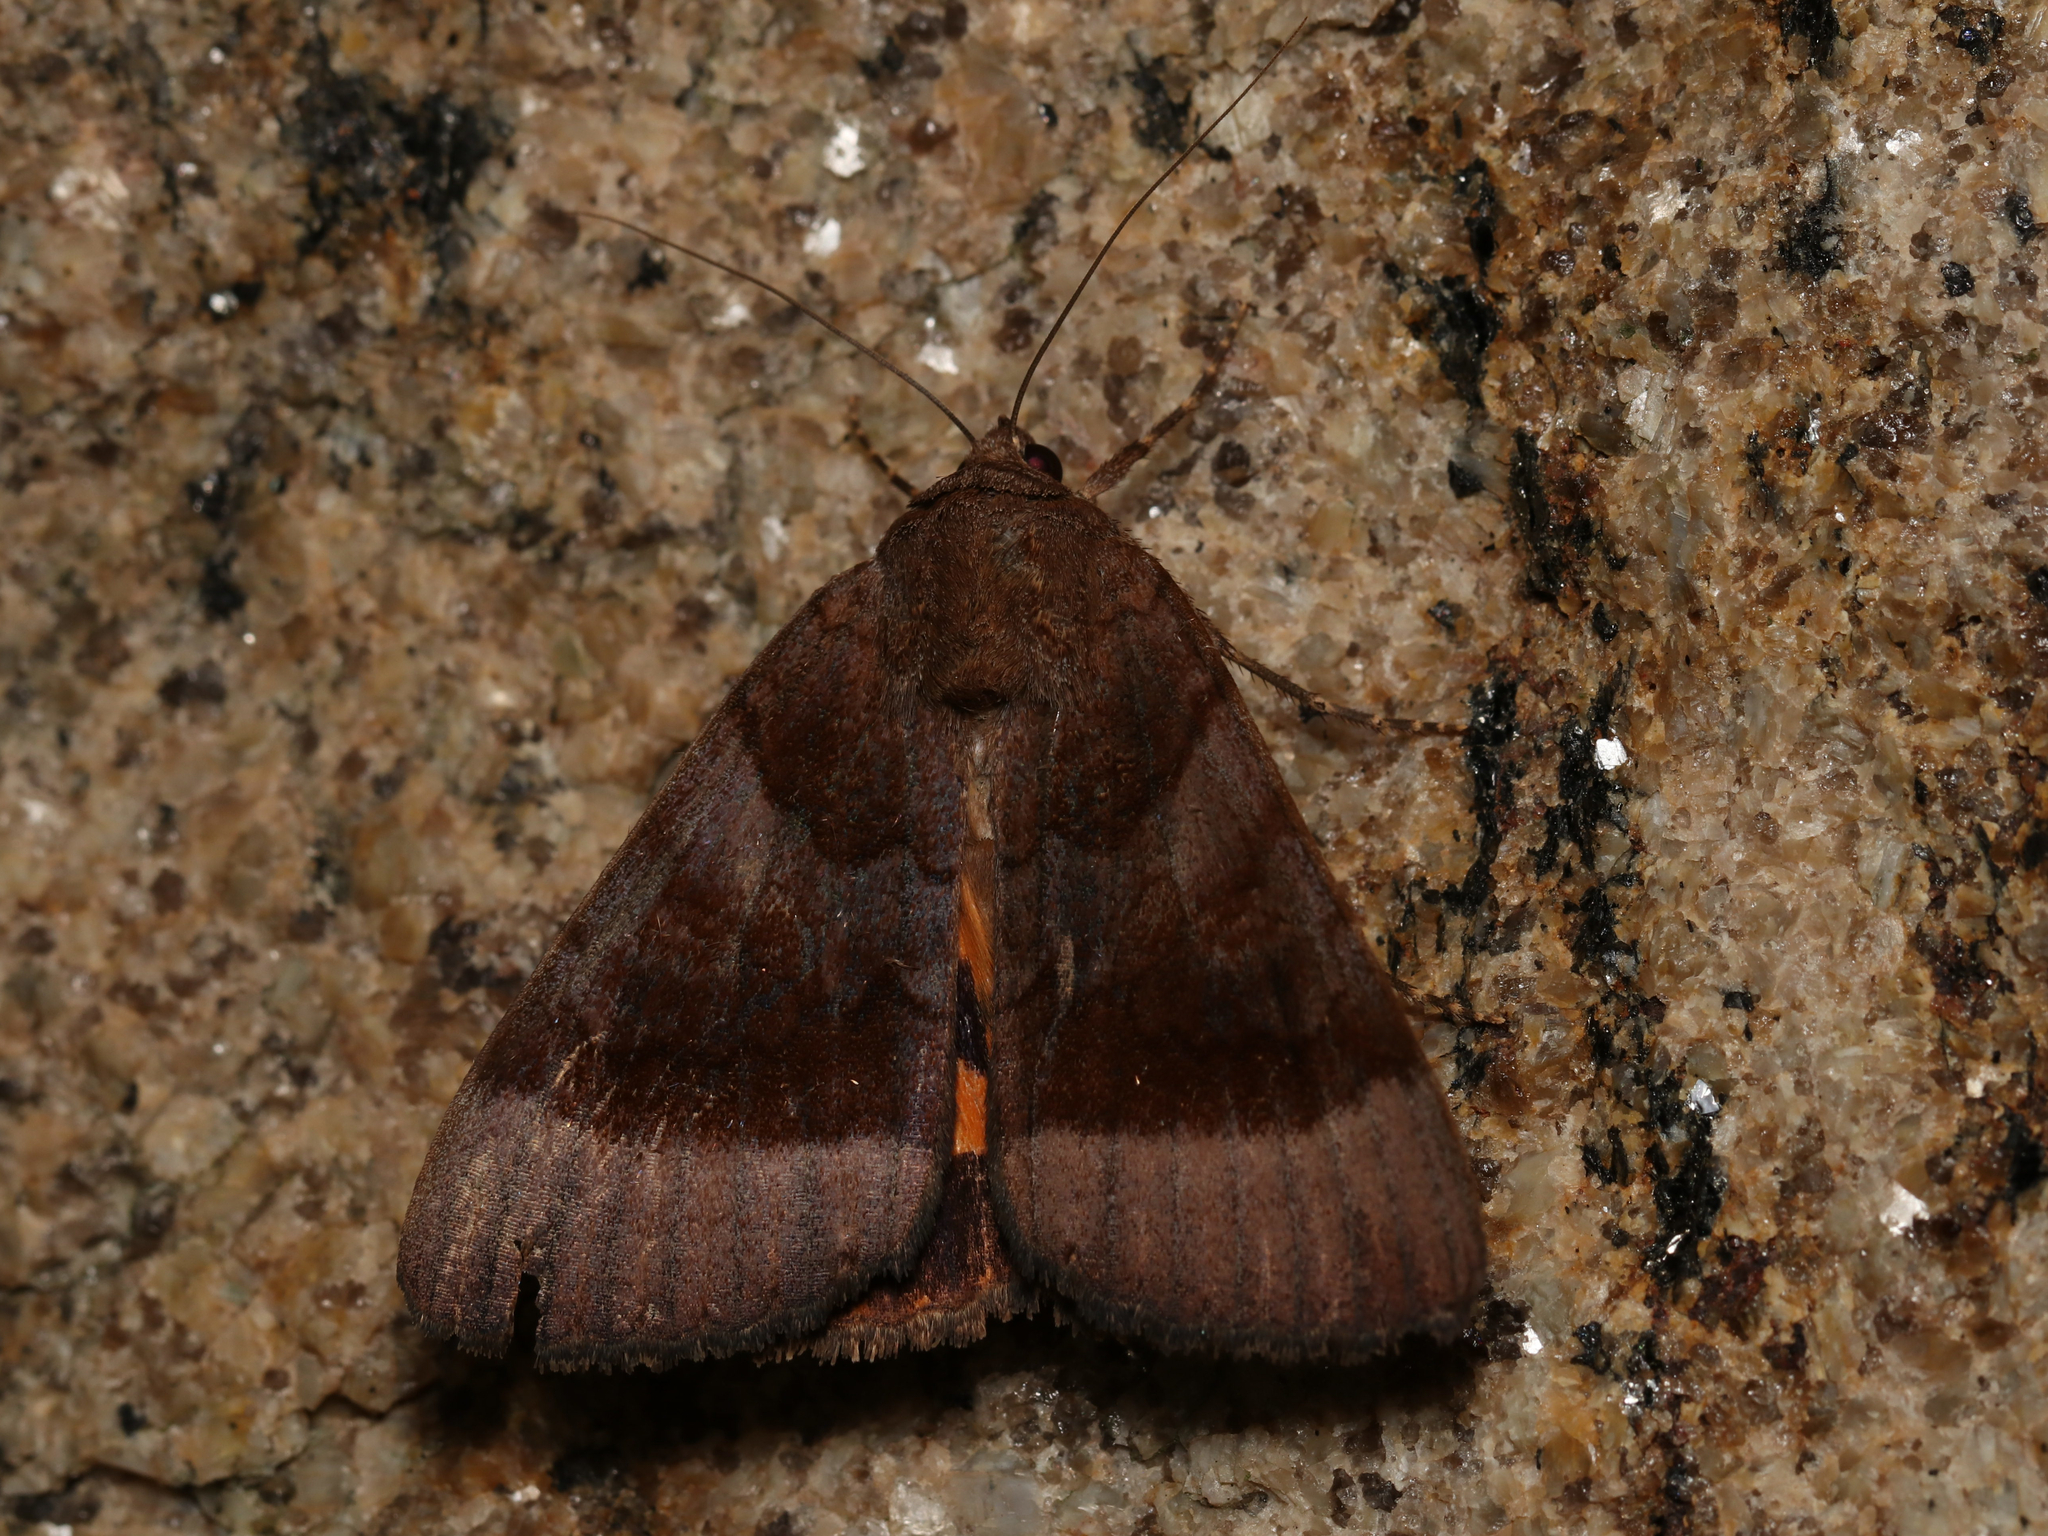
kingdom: Animalia
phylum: Arthropoda
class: Insecta
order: Lepidoptera
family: Erebidae
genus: Catocala
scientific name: Catocala badia
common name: Bay underwing
